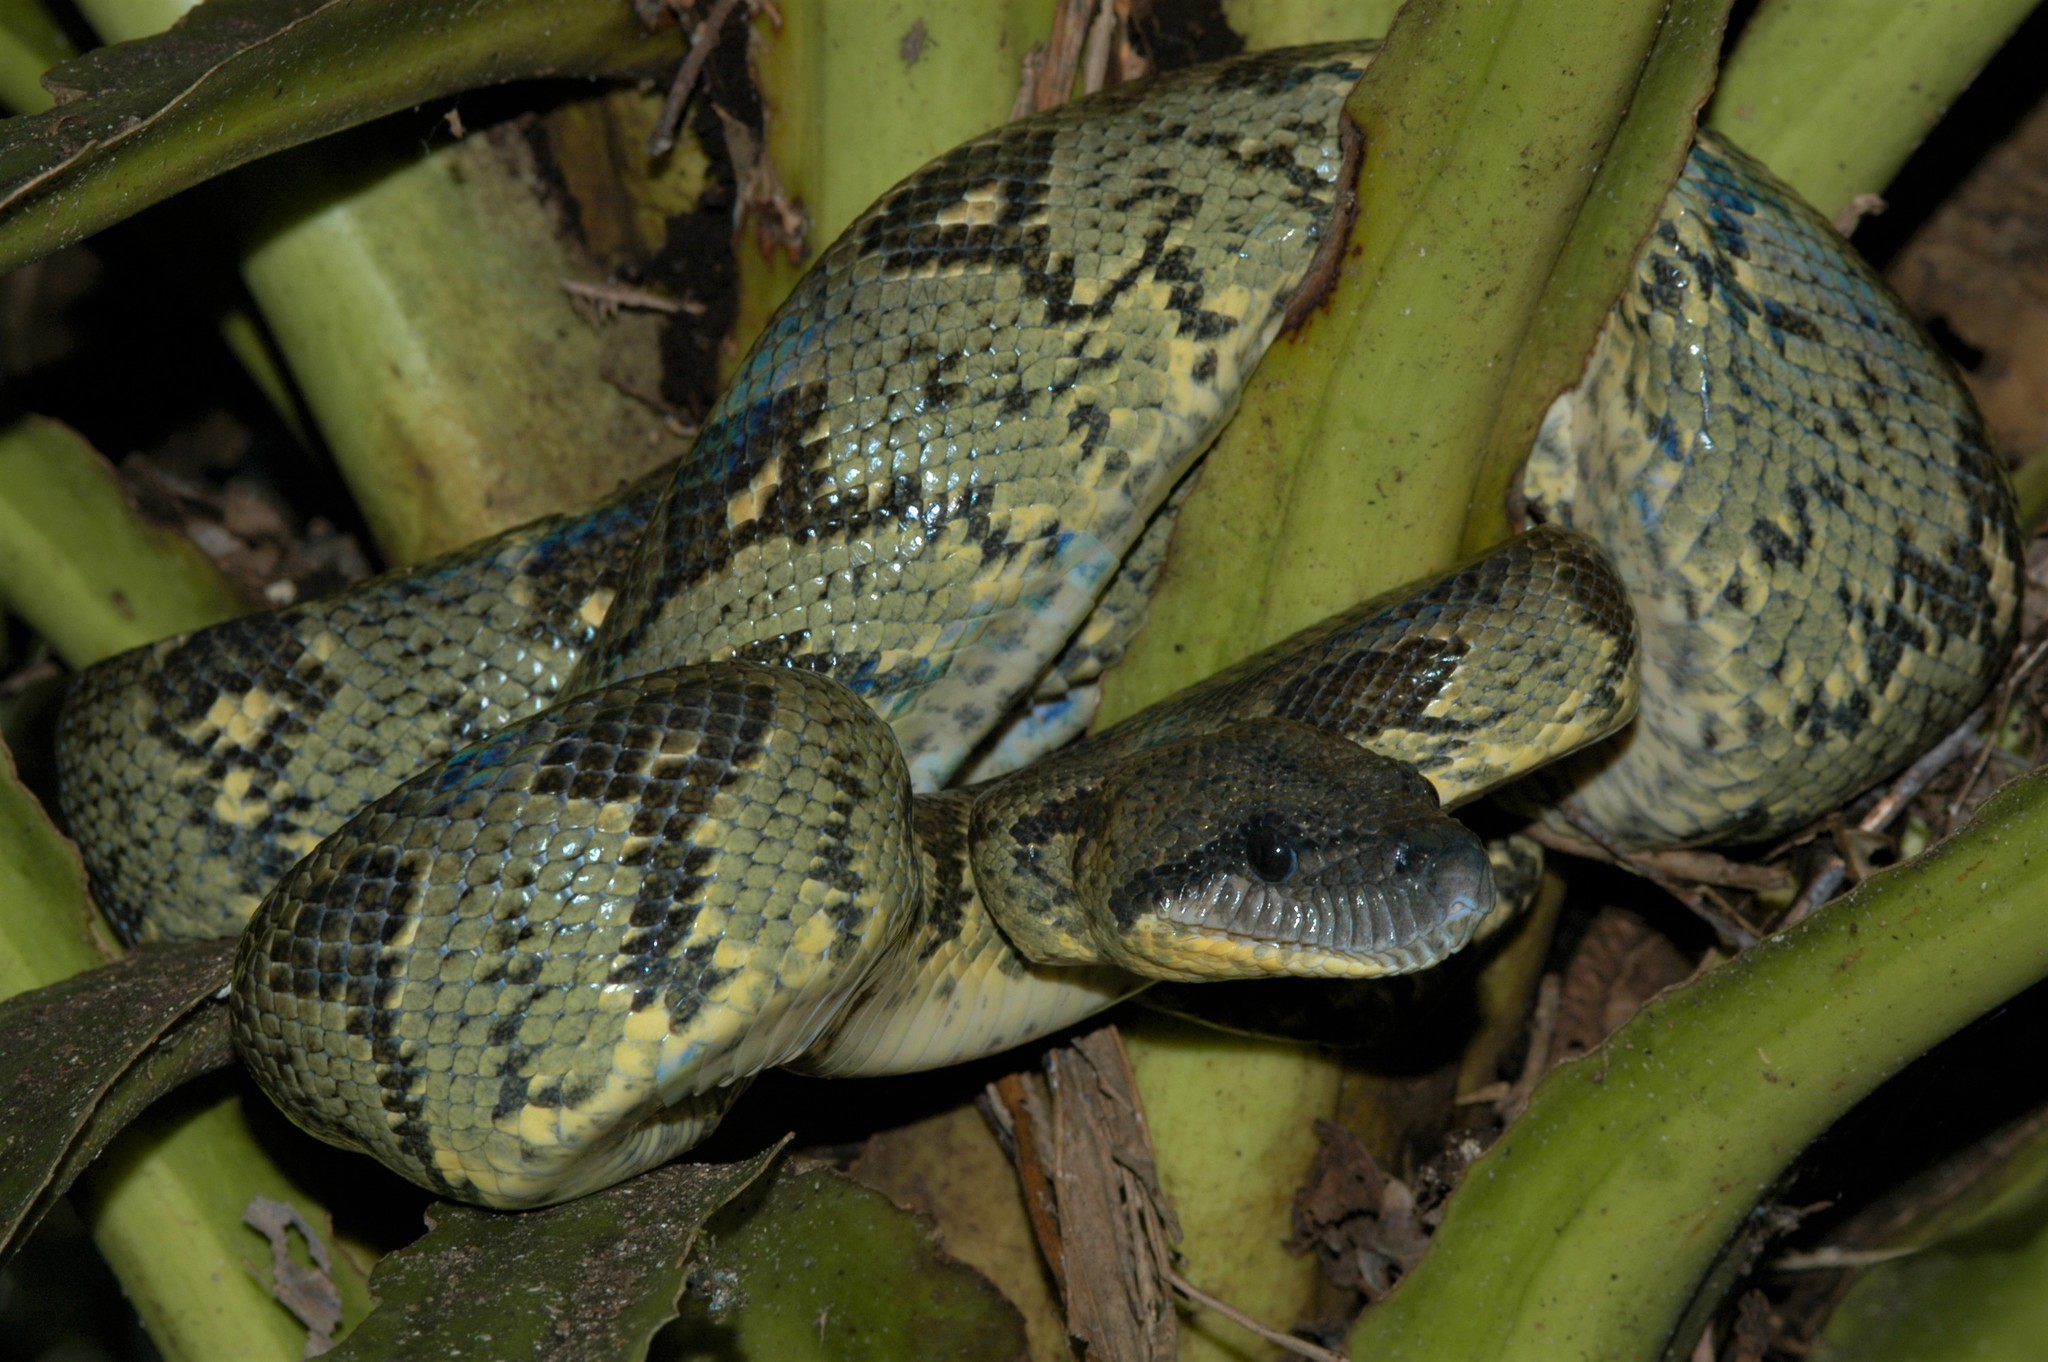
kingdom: Animalia
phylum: Chordata
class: Squamata
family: Boidae
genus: Sanzinia
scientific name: Sanzinia madagascariensis
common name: Madagascar tree boa
